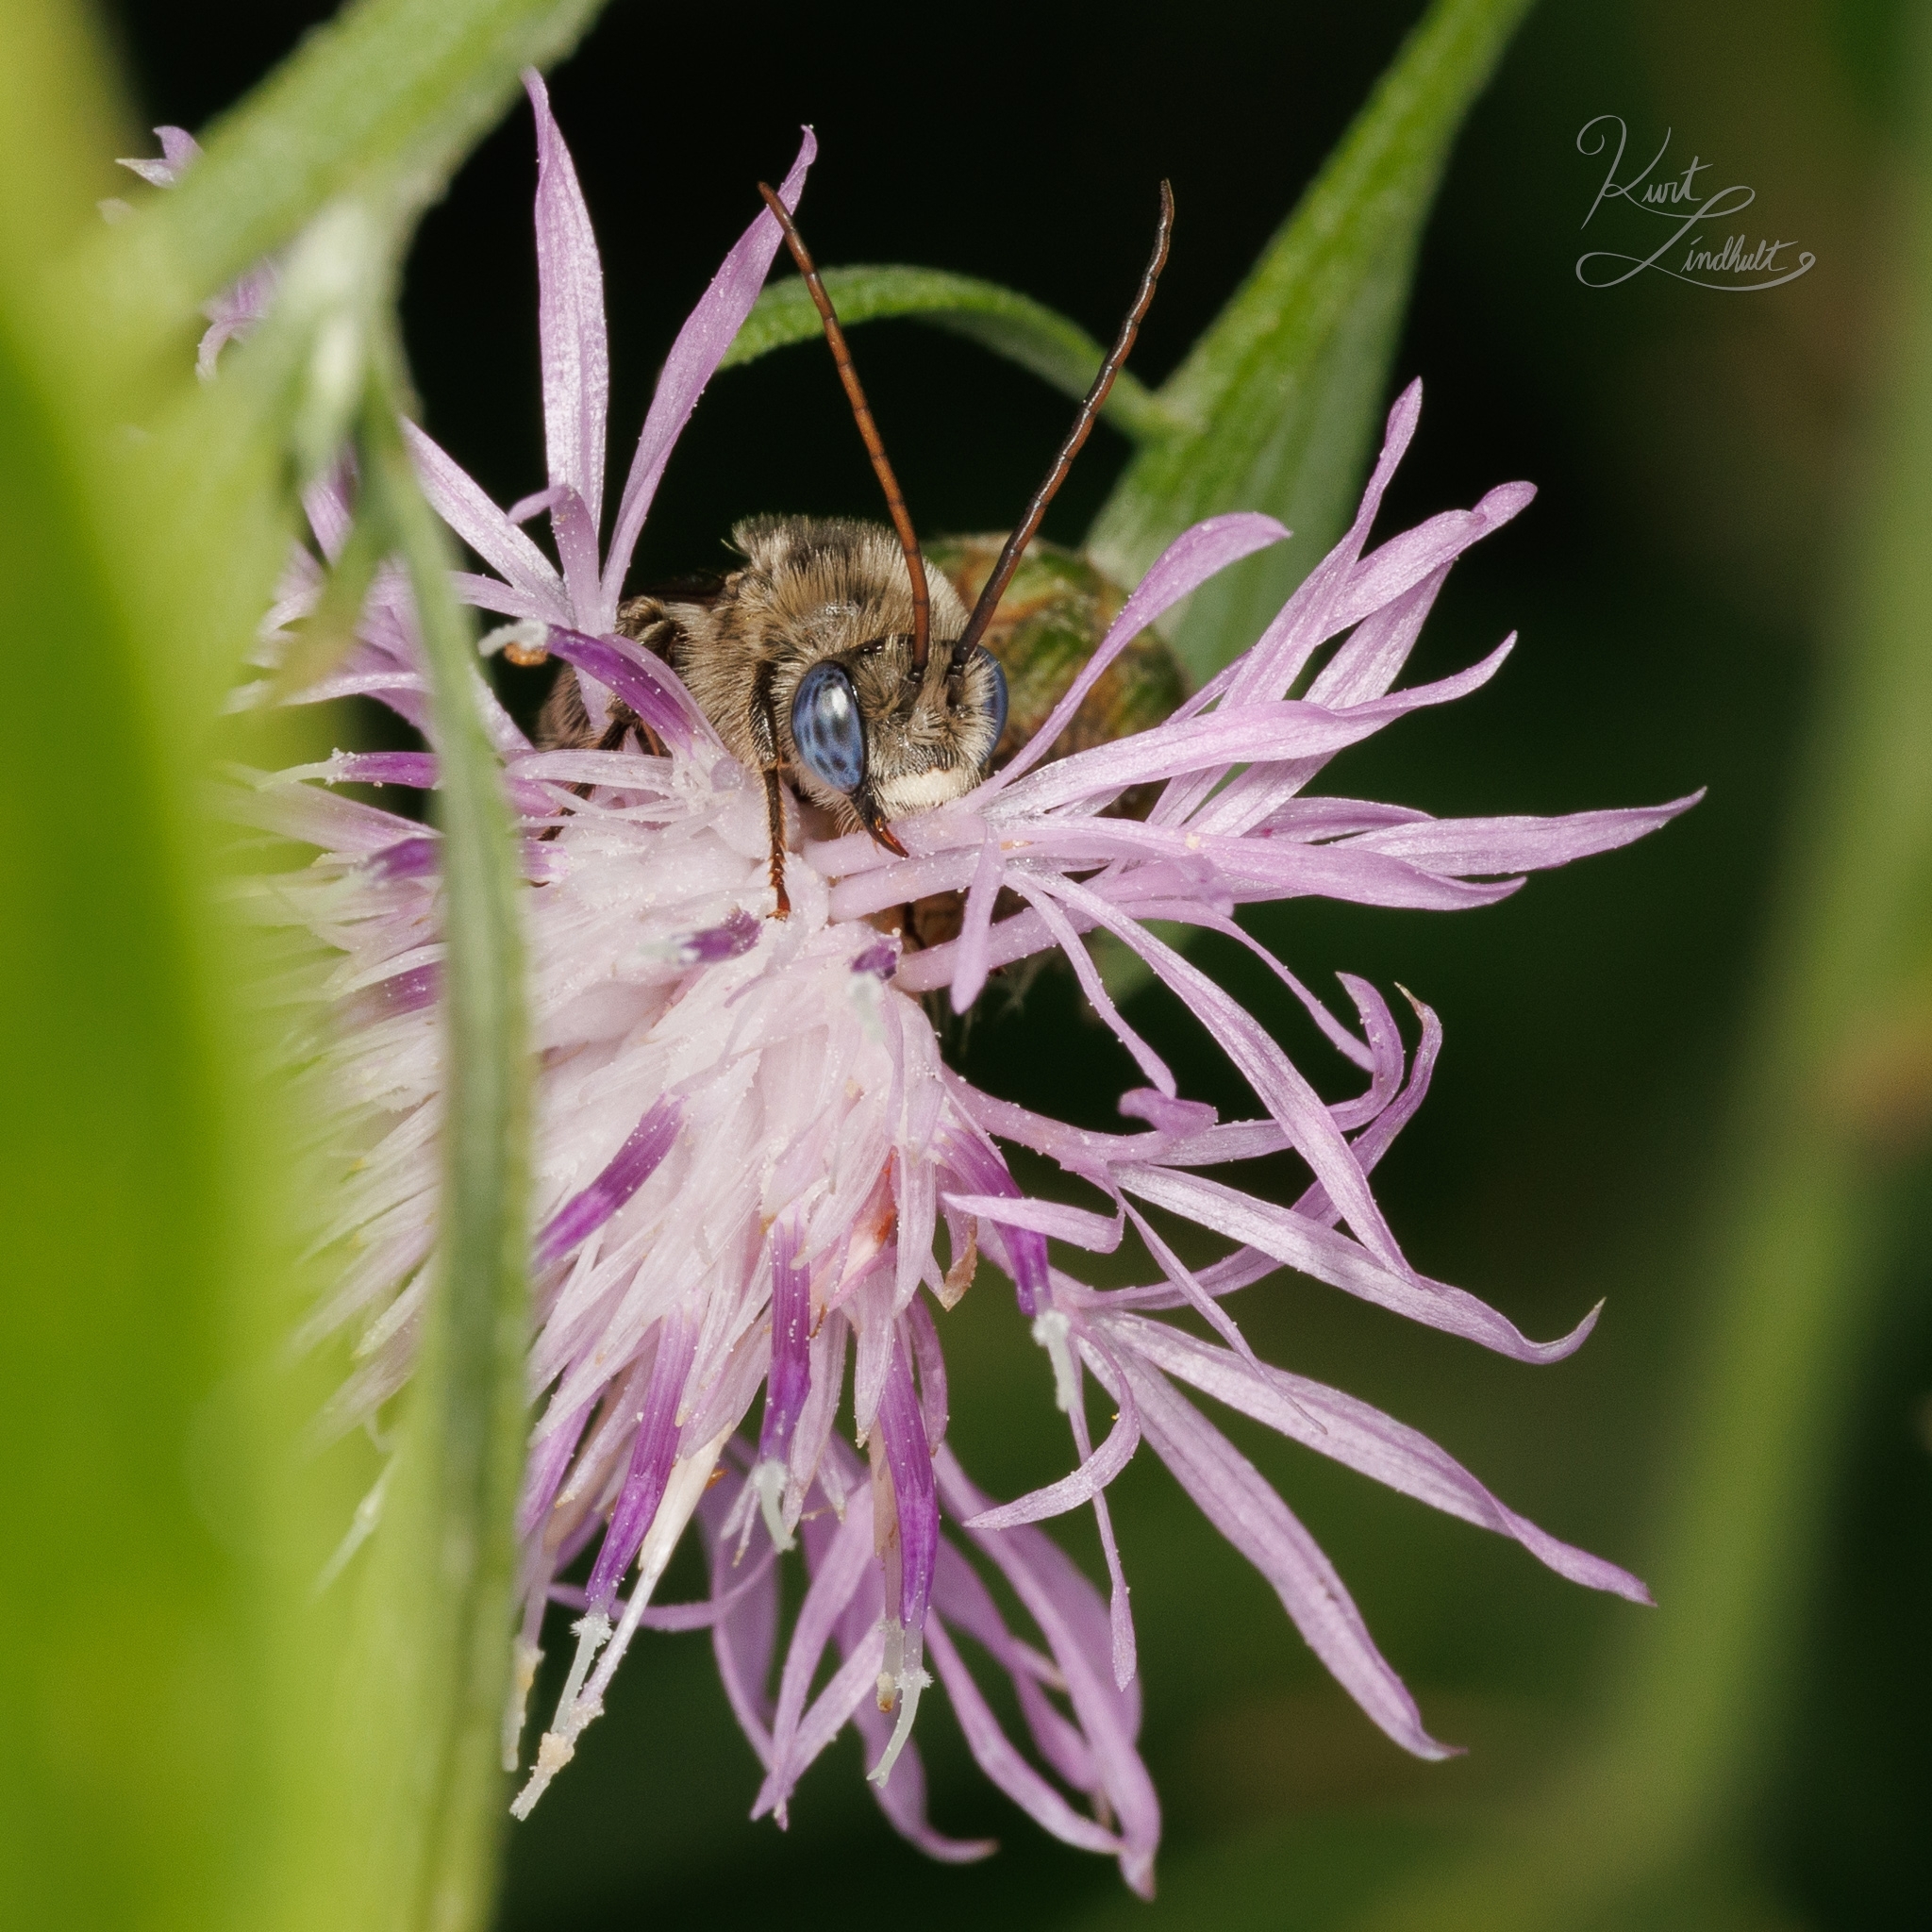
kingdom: Animalia
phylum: Arthropoda
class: Insecta
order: Hymenoptera
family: Apidae
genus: Melissodes
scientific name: Melissodes denticulatus
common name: Denticulate long-horned bee
